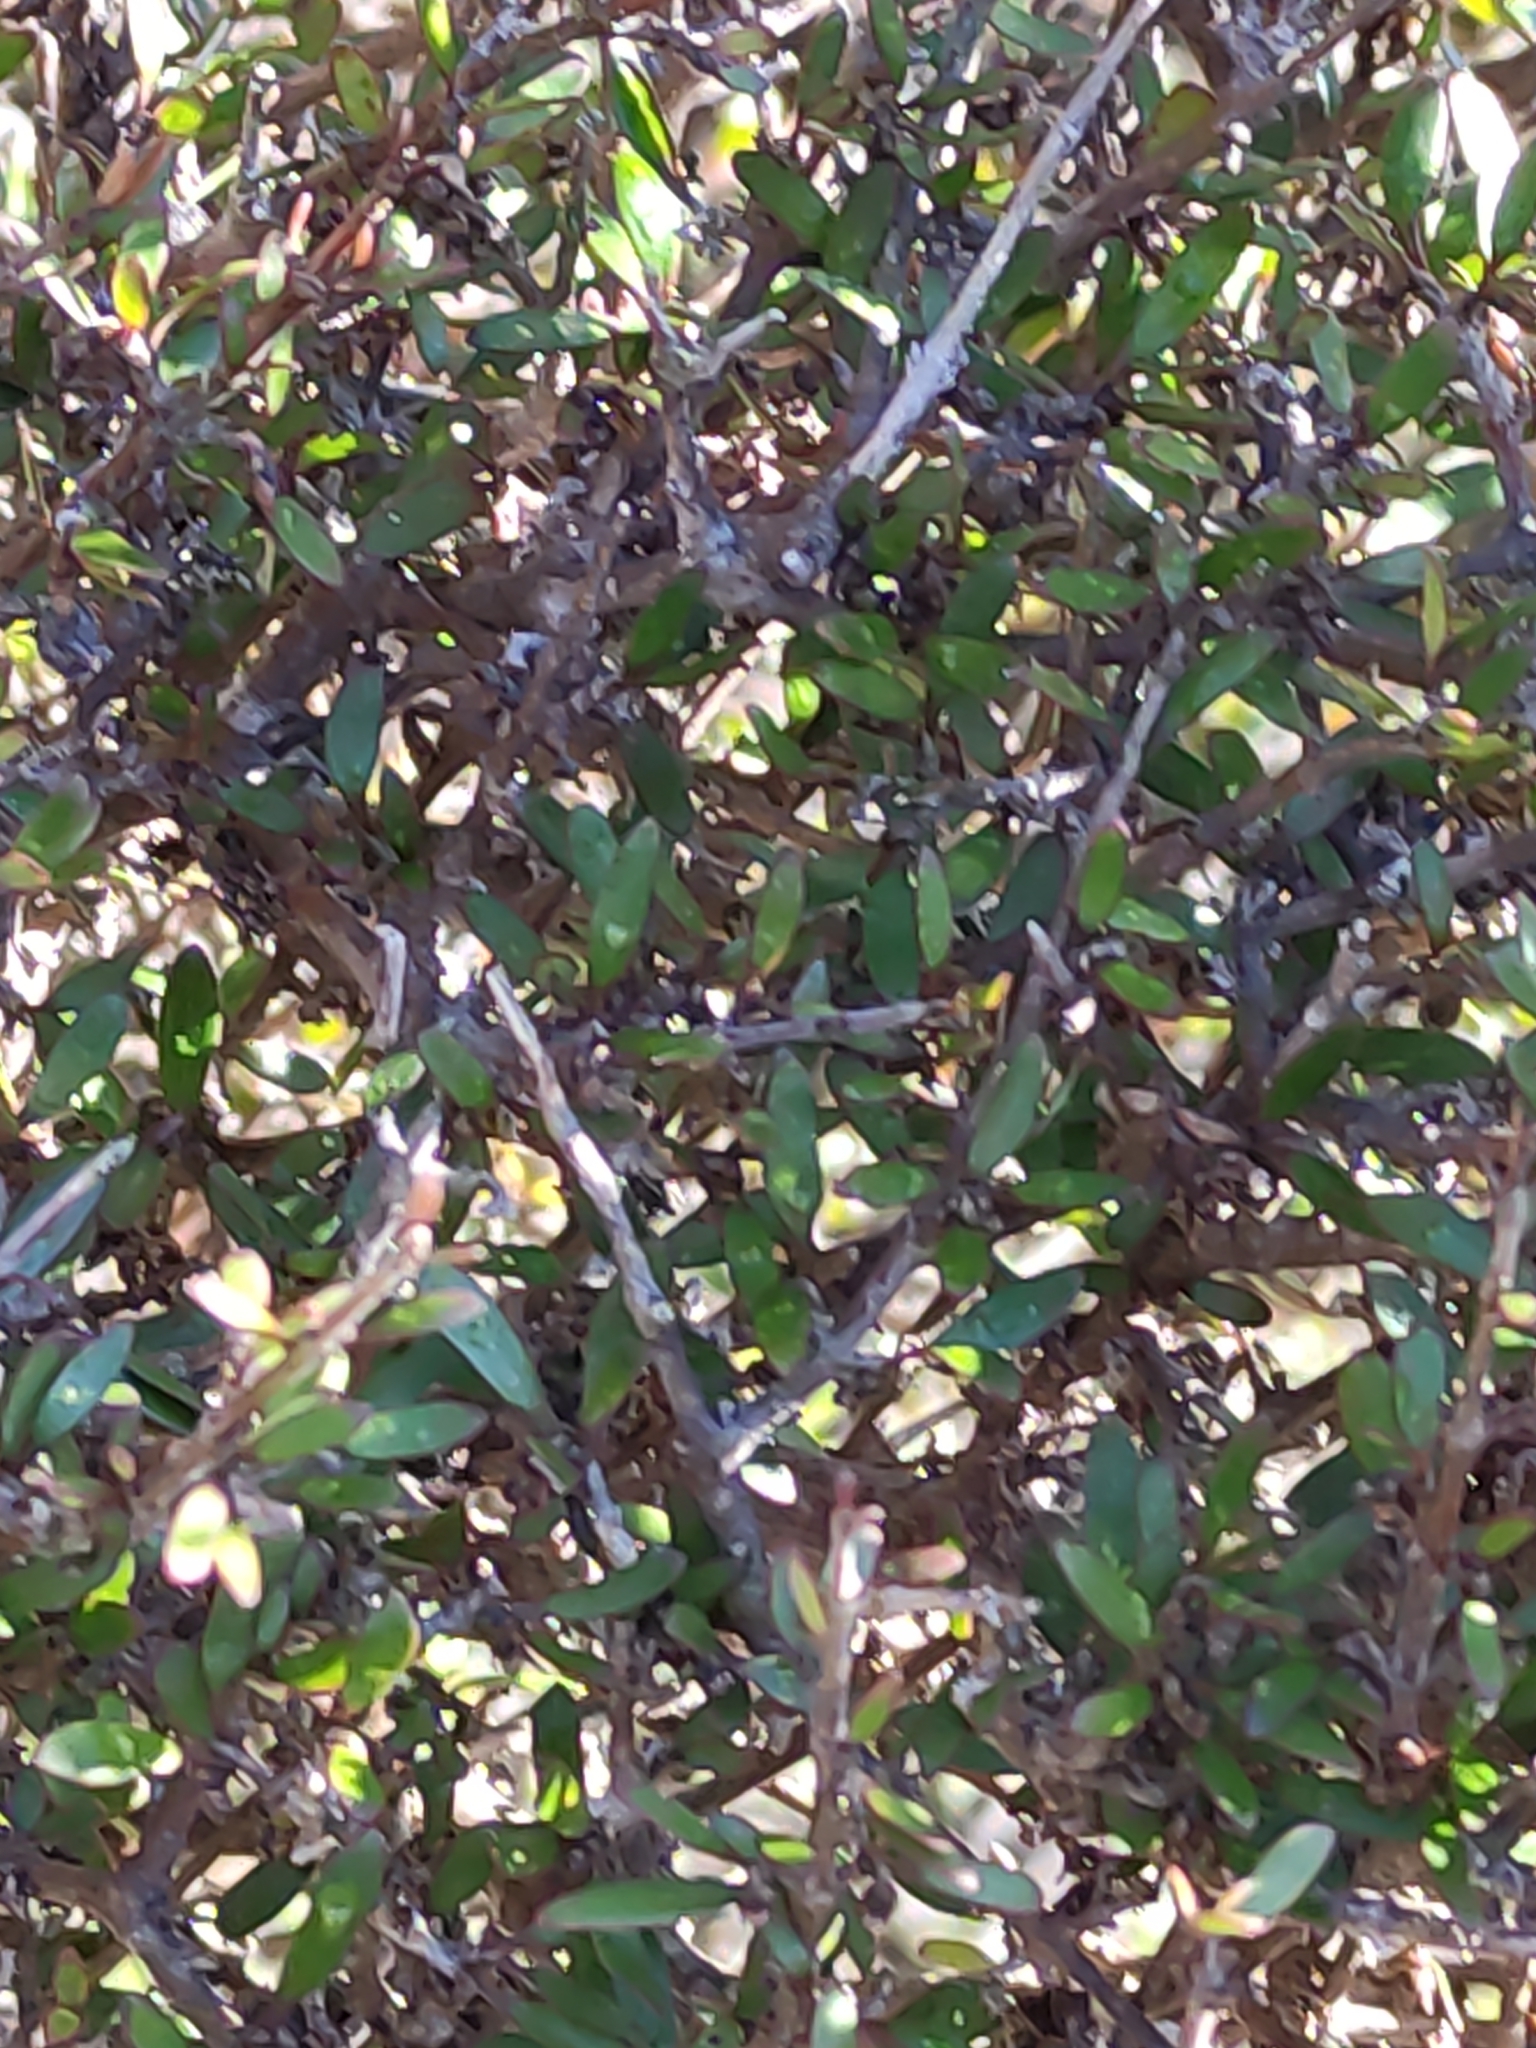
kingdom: Plantae
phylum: Tracheophyta
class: Magnoliopsida
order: Gentianales
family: Rubiaceae
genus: Coprosma
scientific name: Coprosma propinqua
